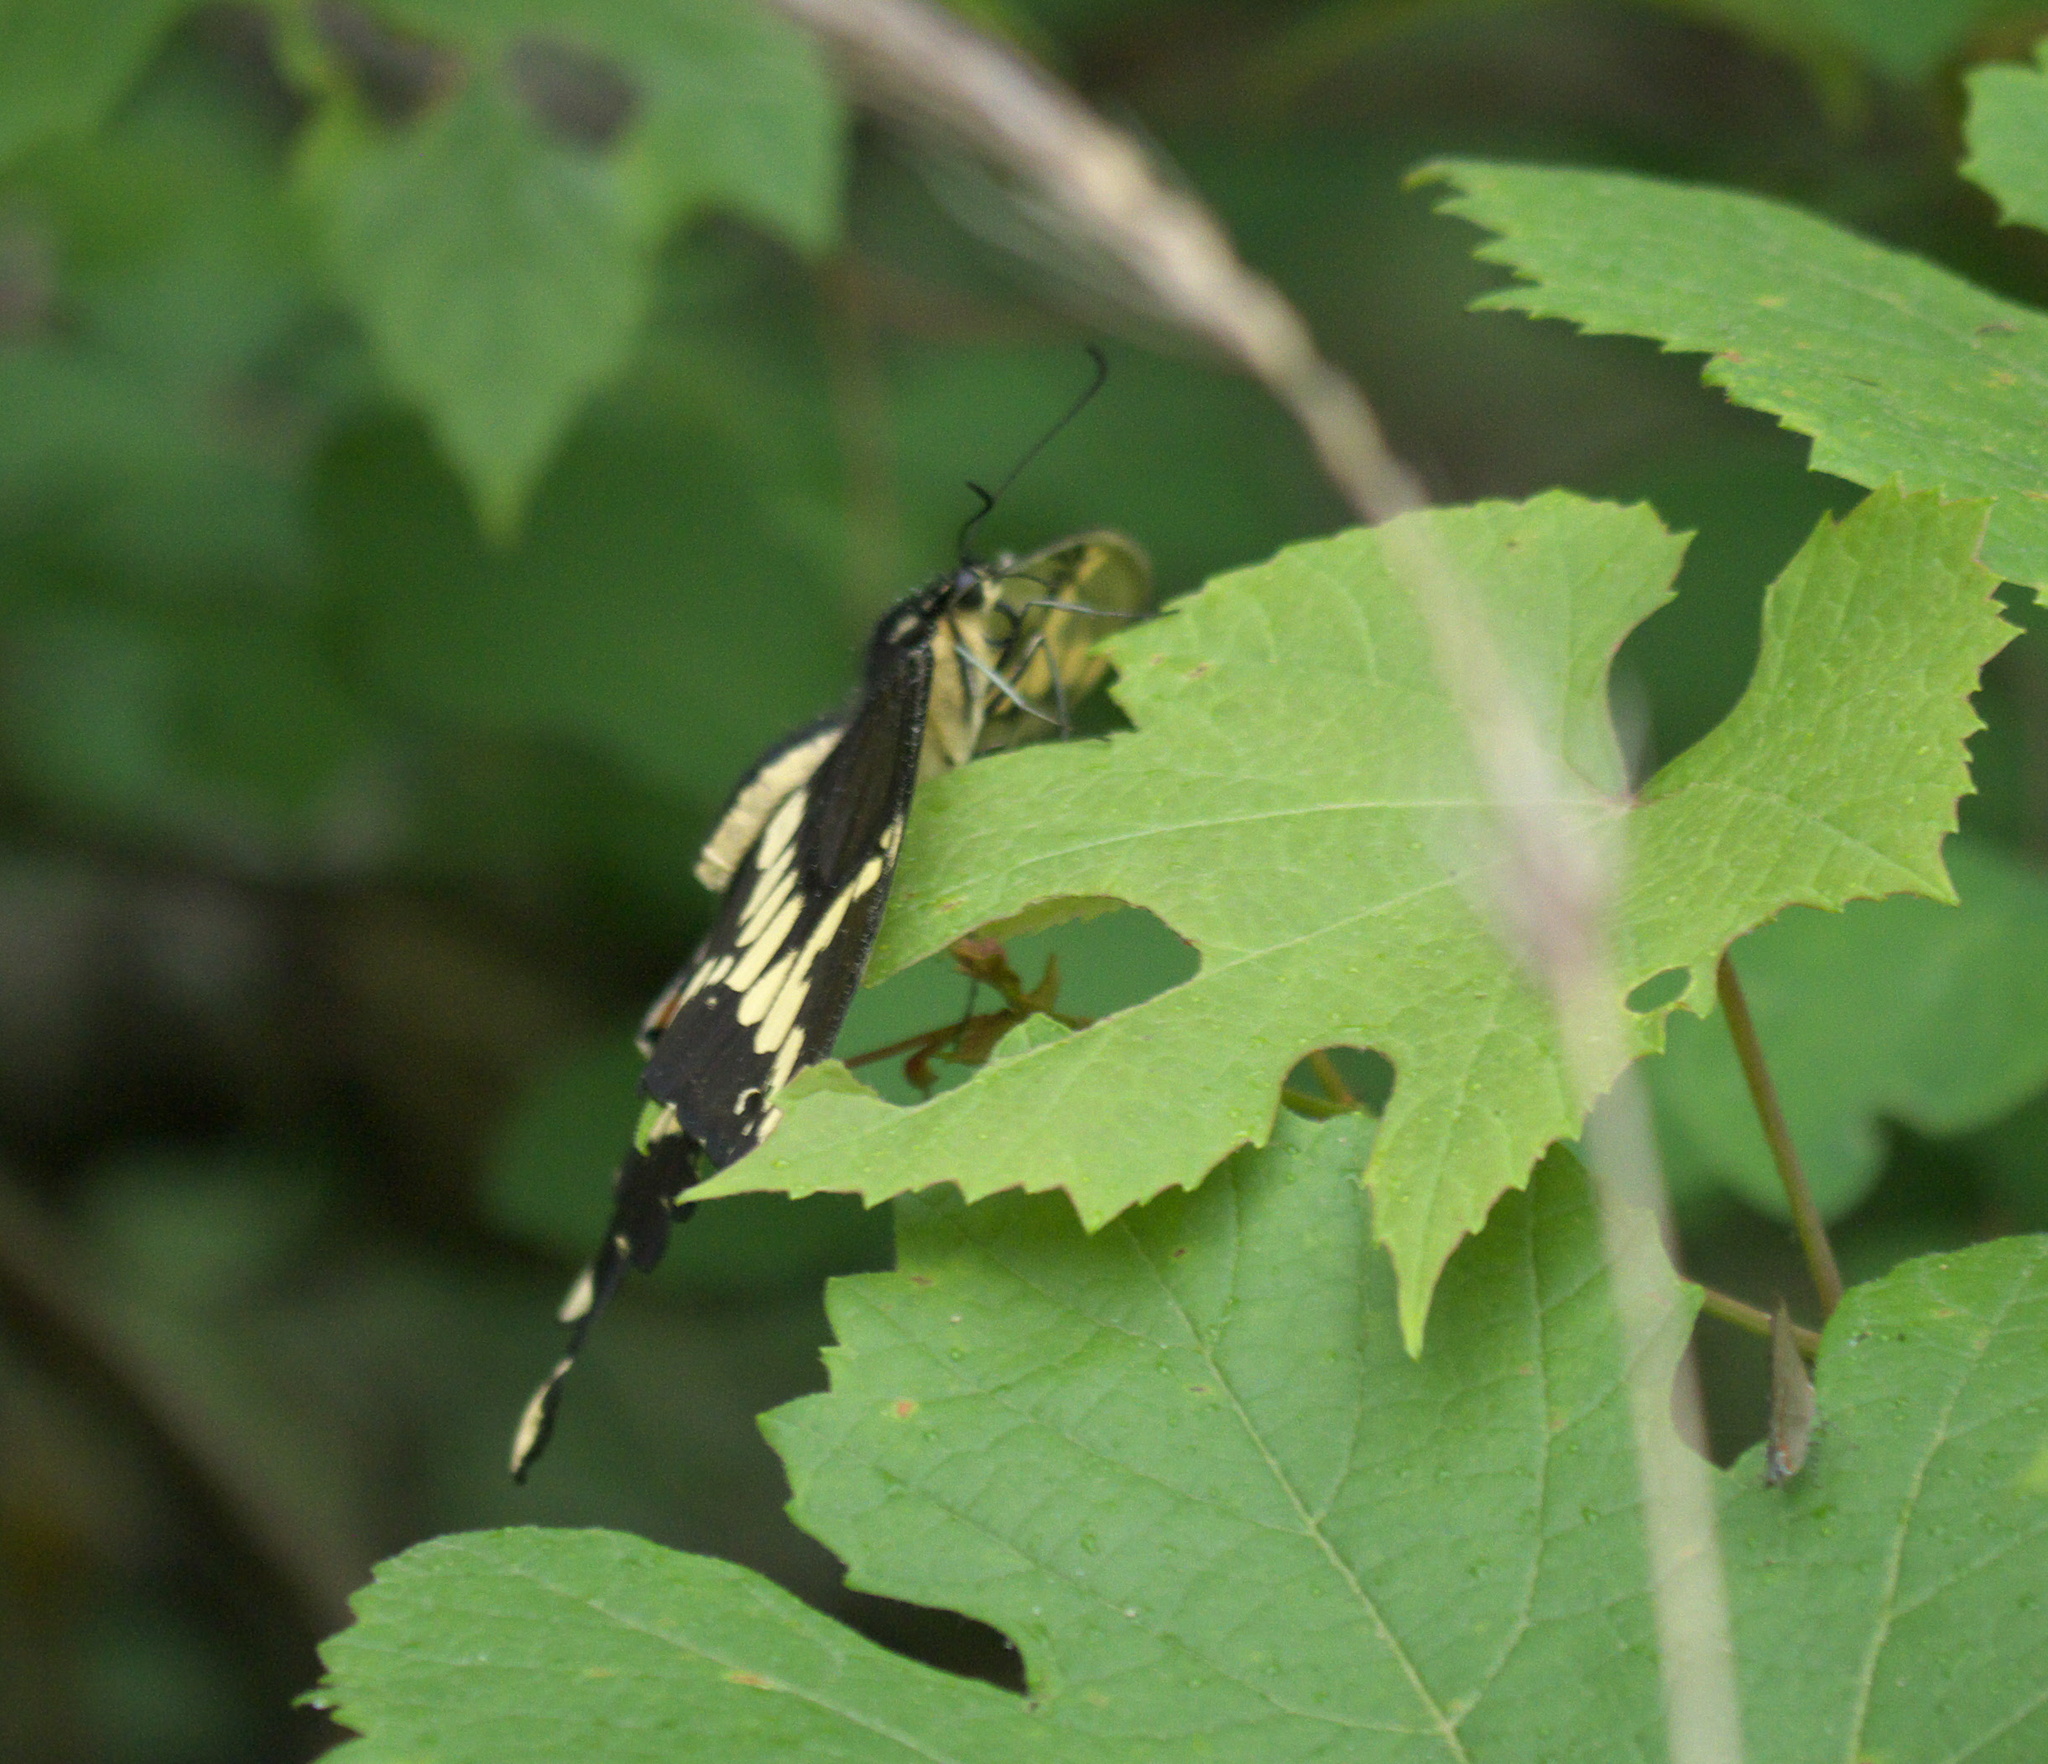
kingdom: Animalia
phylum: Arthropoda
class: Insecta
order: Lepidoptera
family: Papilionidae
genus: Papilio
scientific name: Papilio cresphontes
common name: Giant swallowtail
